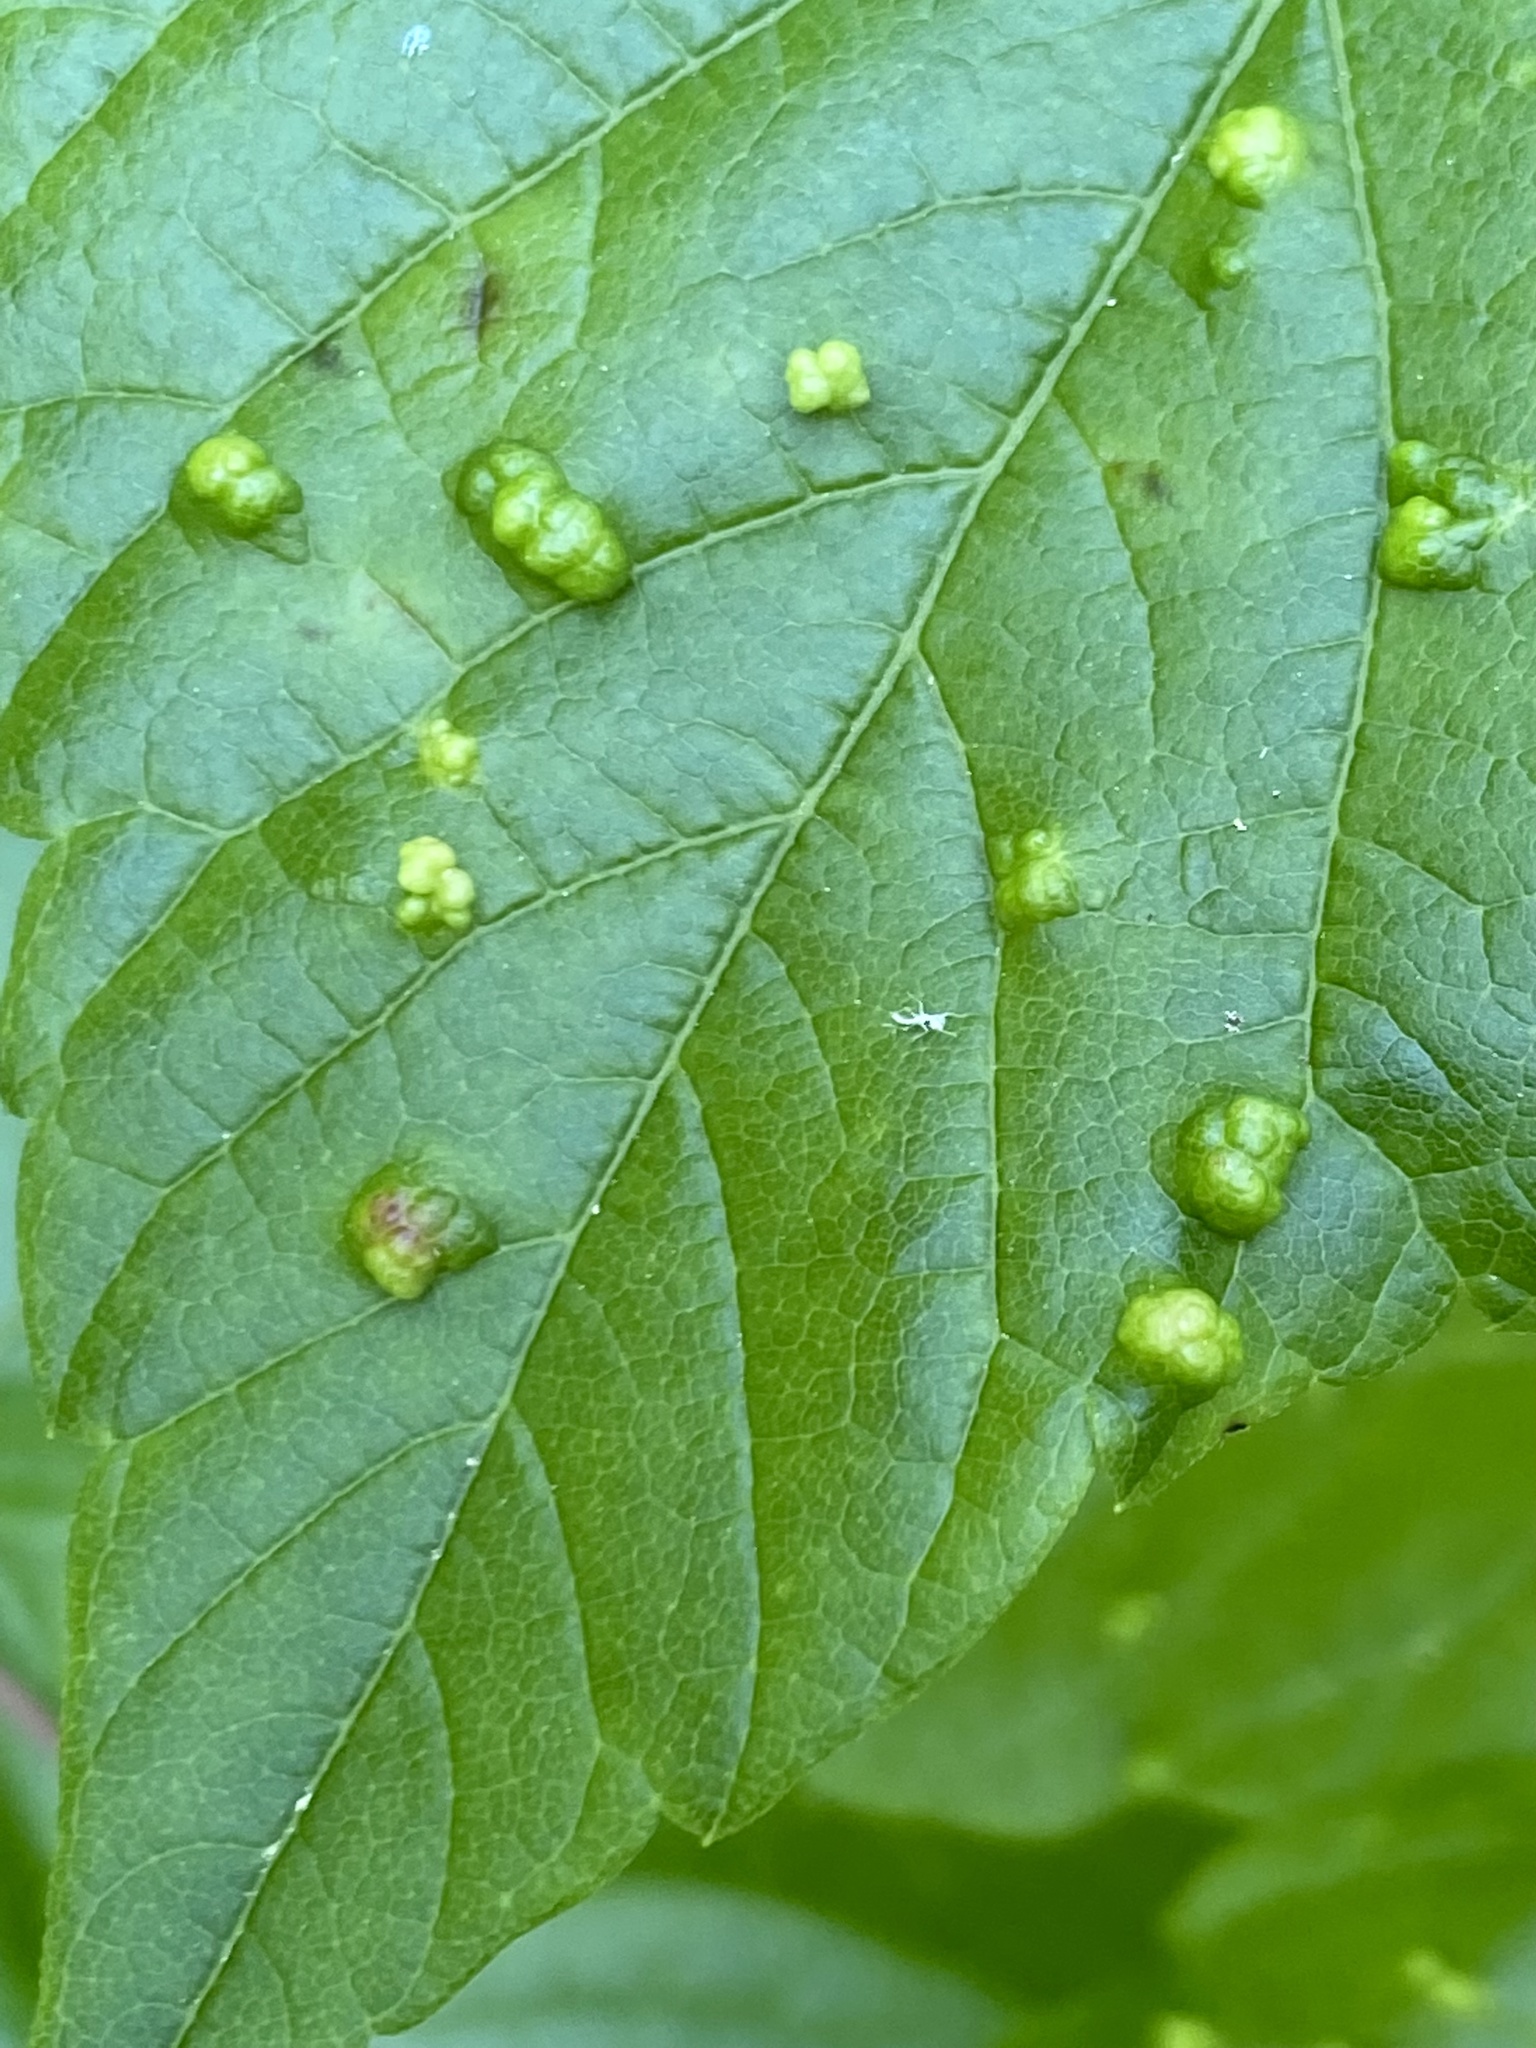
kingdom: Animalia
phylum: Arthropoda
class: Arachnida
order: Trombidiformes
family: Eriophyidae
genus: Aceria
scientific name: Aceria
